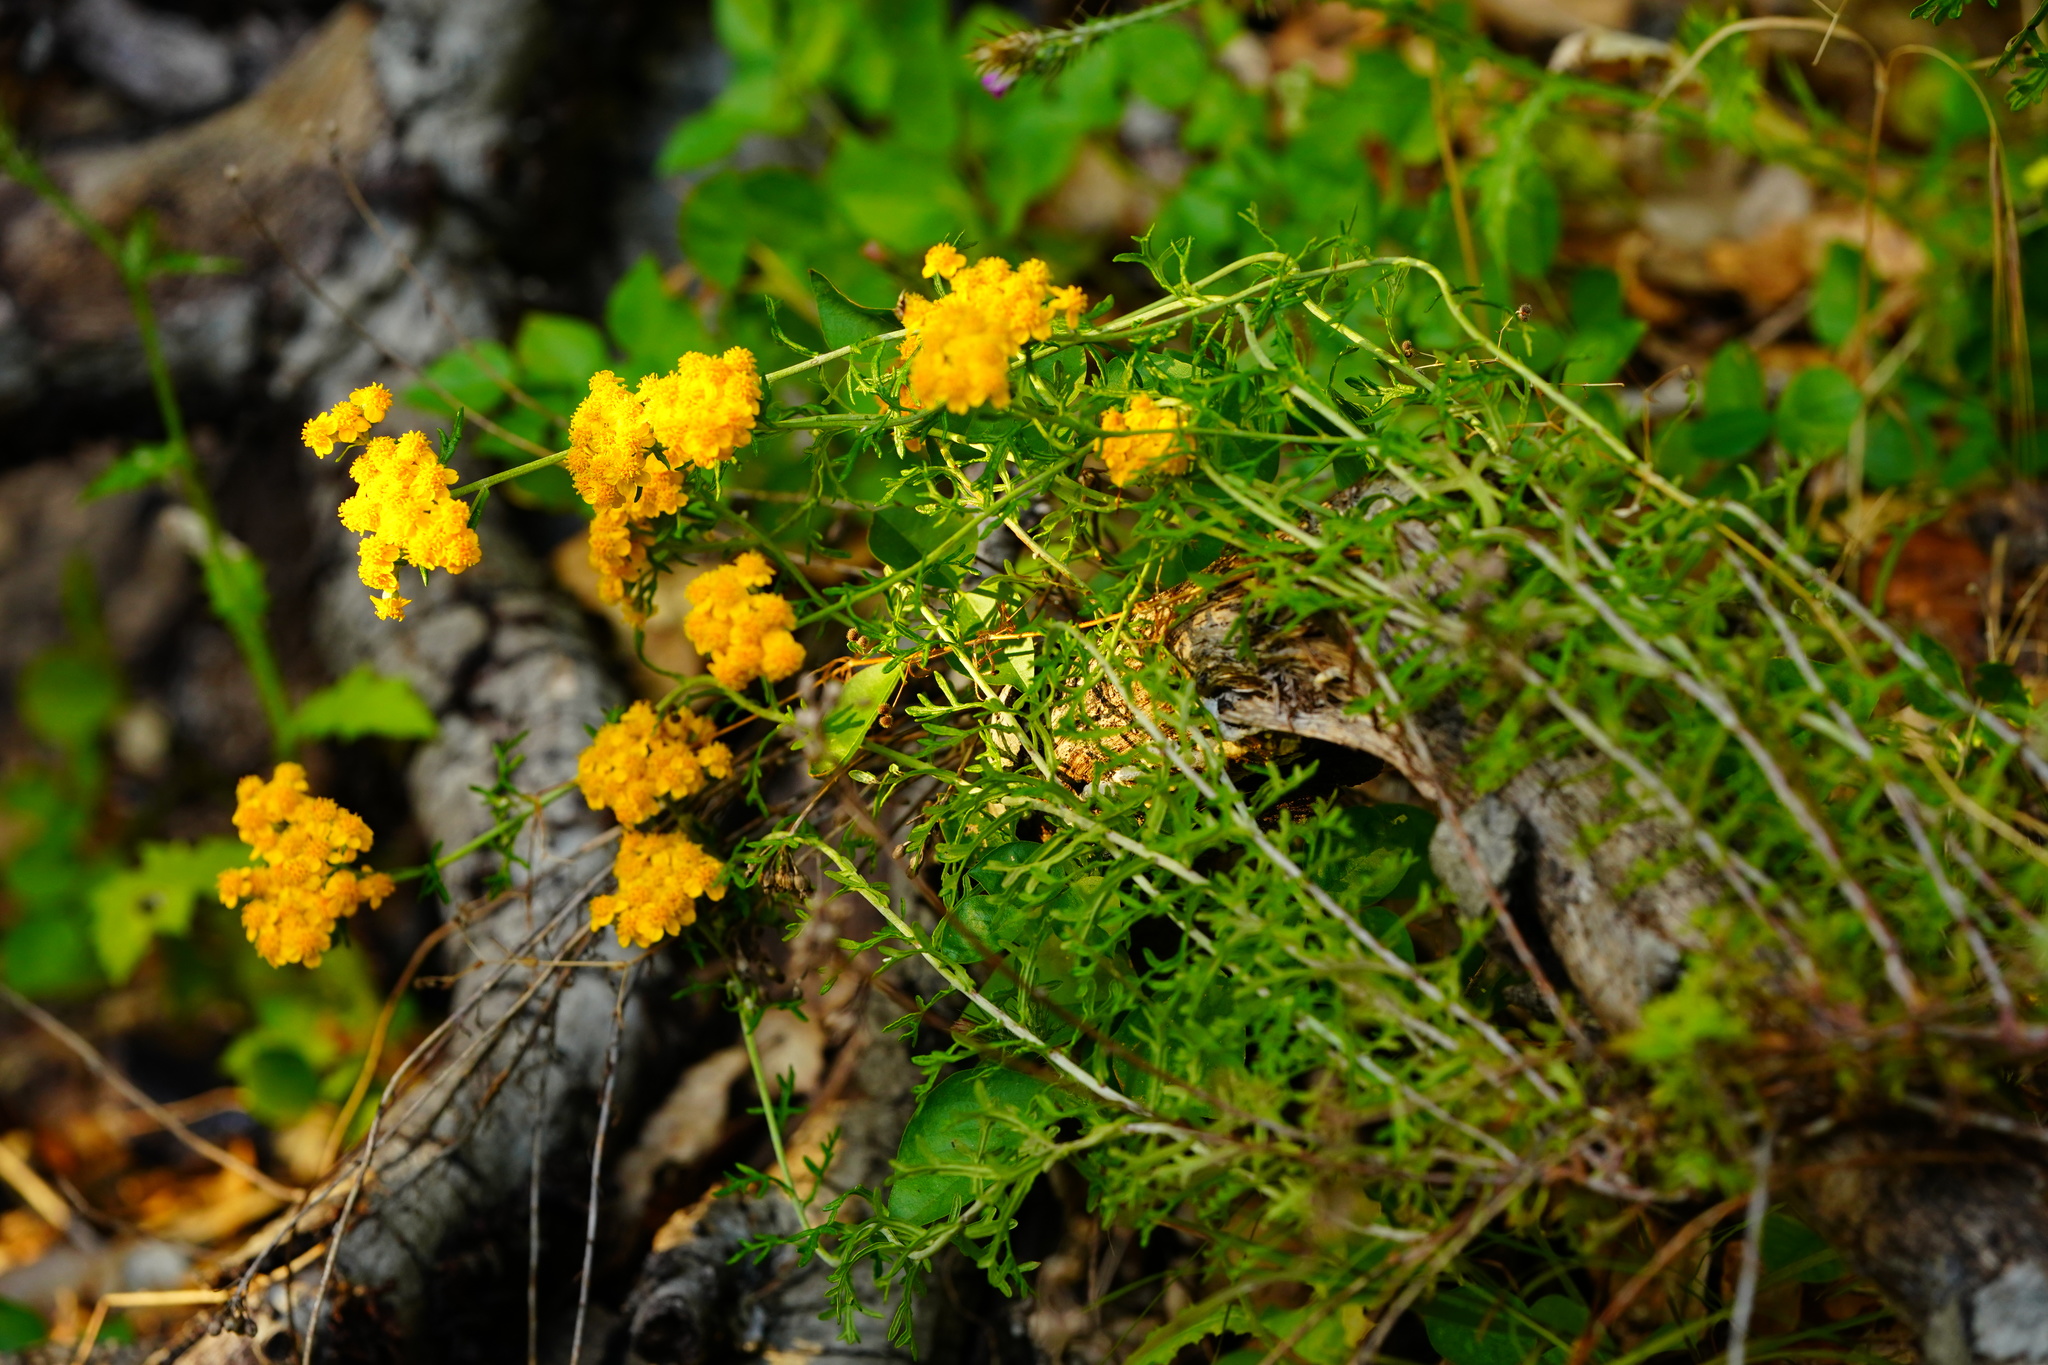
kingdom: Plantae
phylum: Tracheophyta
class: Magnoliopsida
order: Asterales
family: Asteraceae
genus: Eriophyllum
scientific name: Eriophyllum confertiflorum
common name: Golden-yarrow
